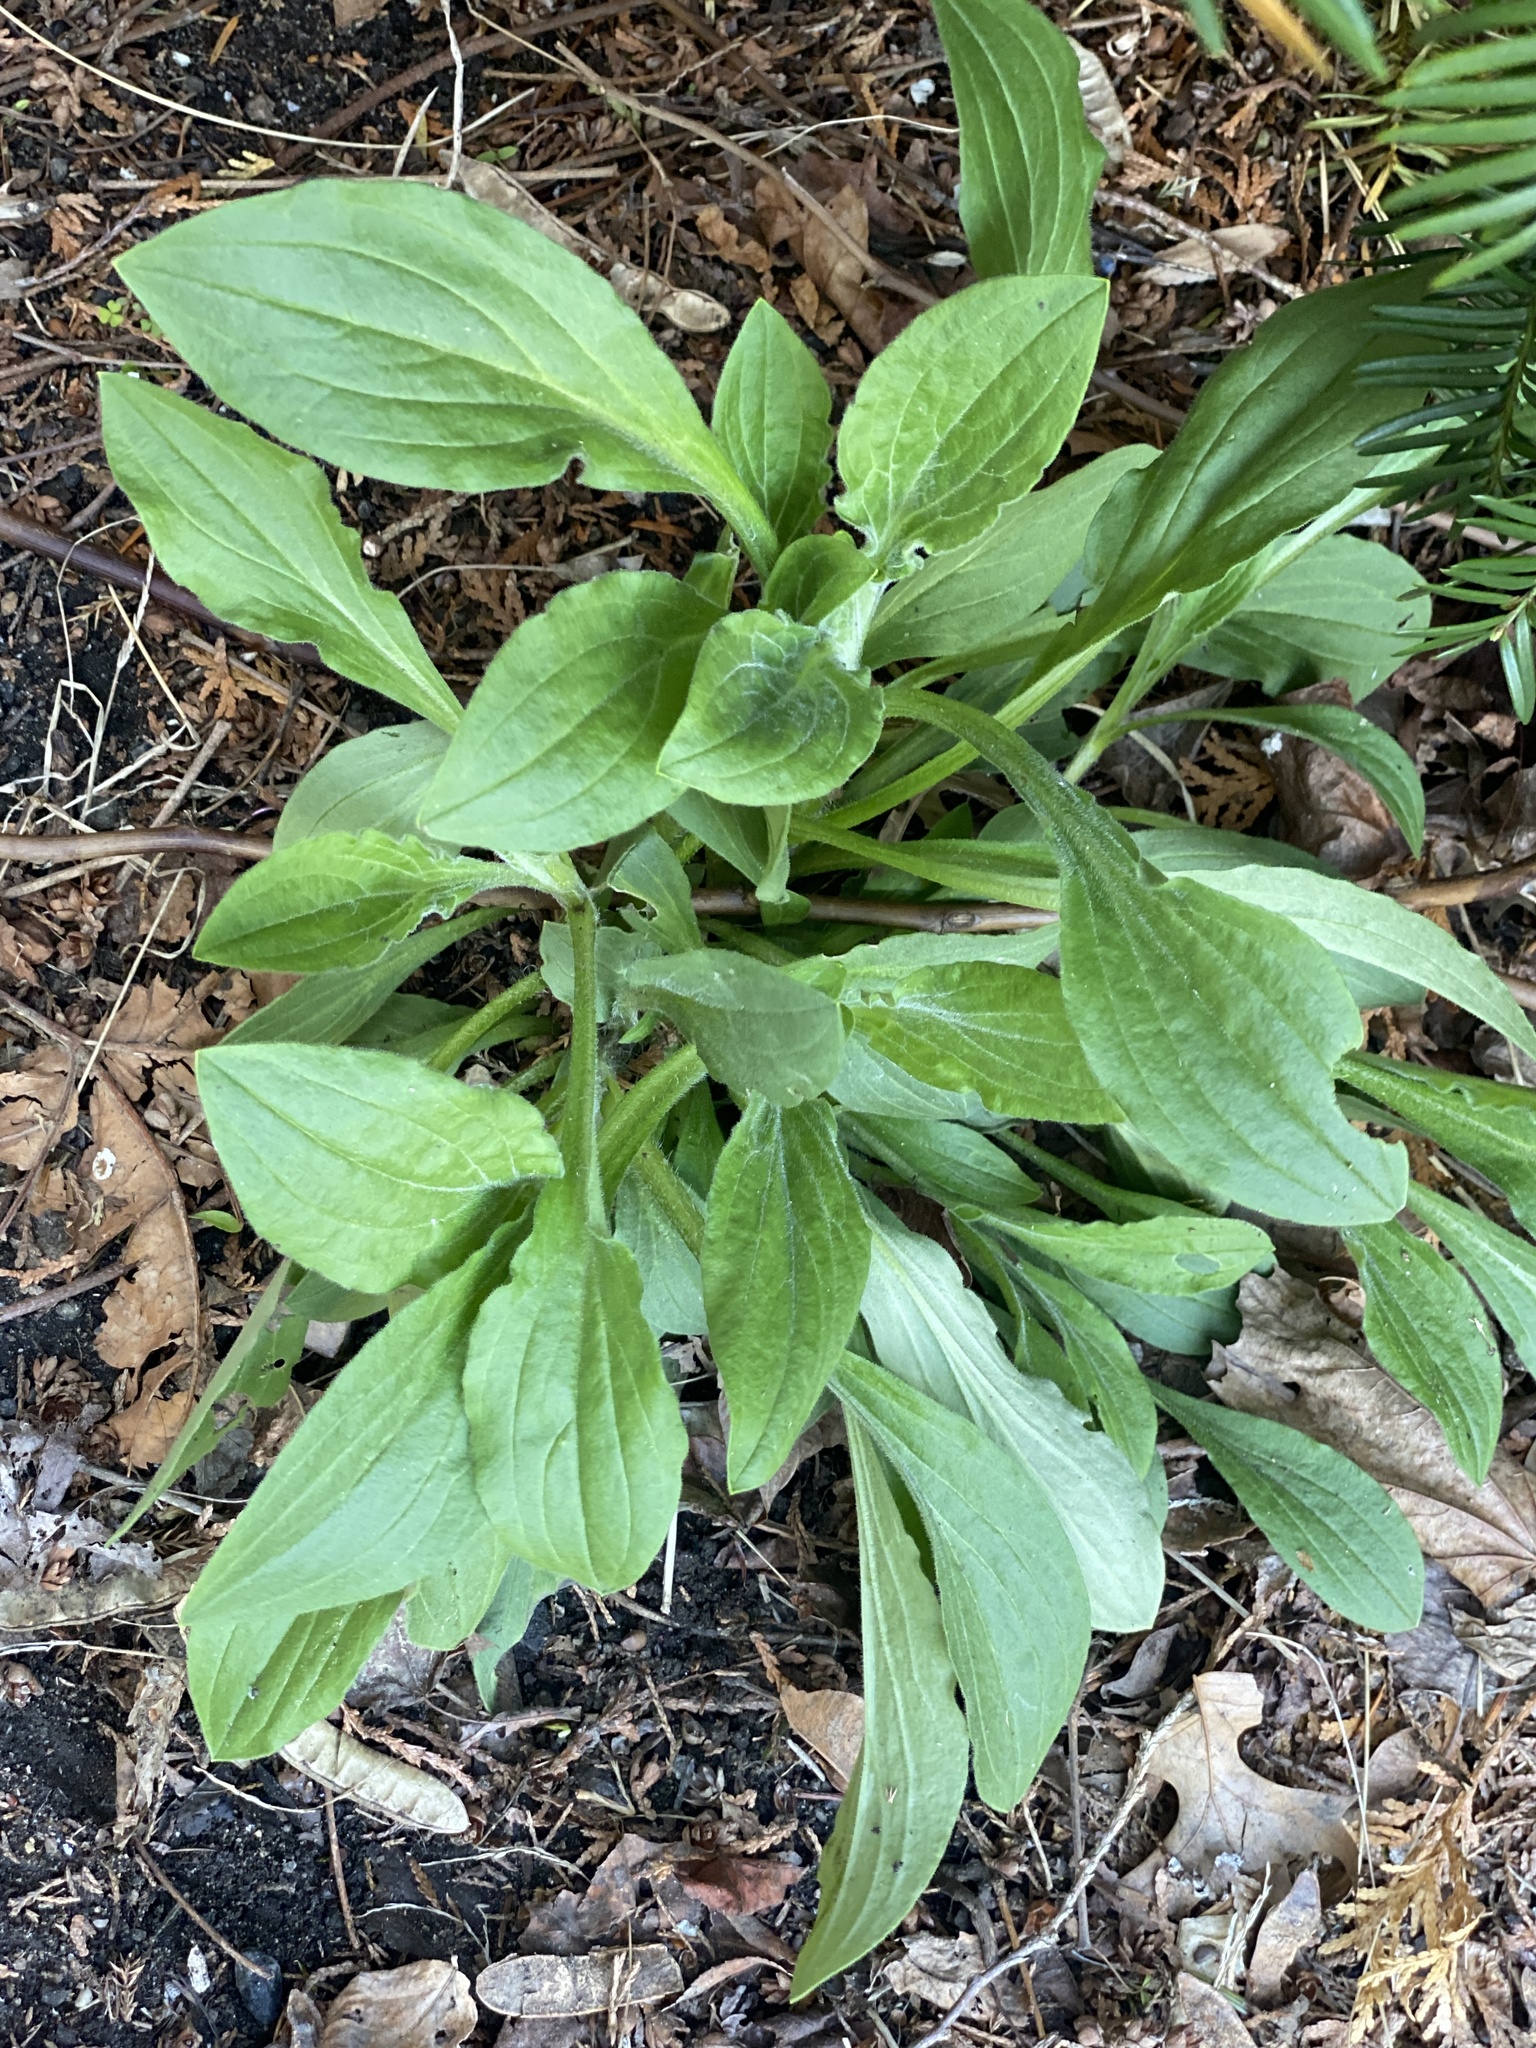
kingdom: Plantae
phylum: Tracheophyta
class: Magnoliopsida
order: Caryophyllales
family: Caryophyllaceae
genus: Silene
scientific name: Silene latifolia
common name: White campion
